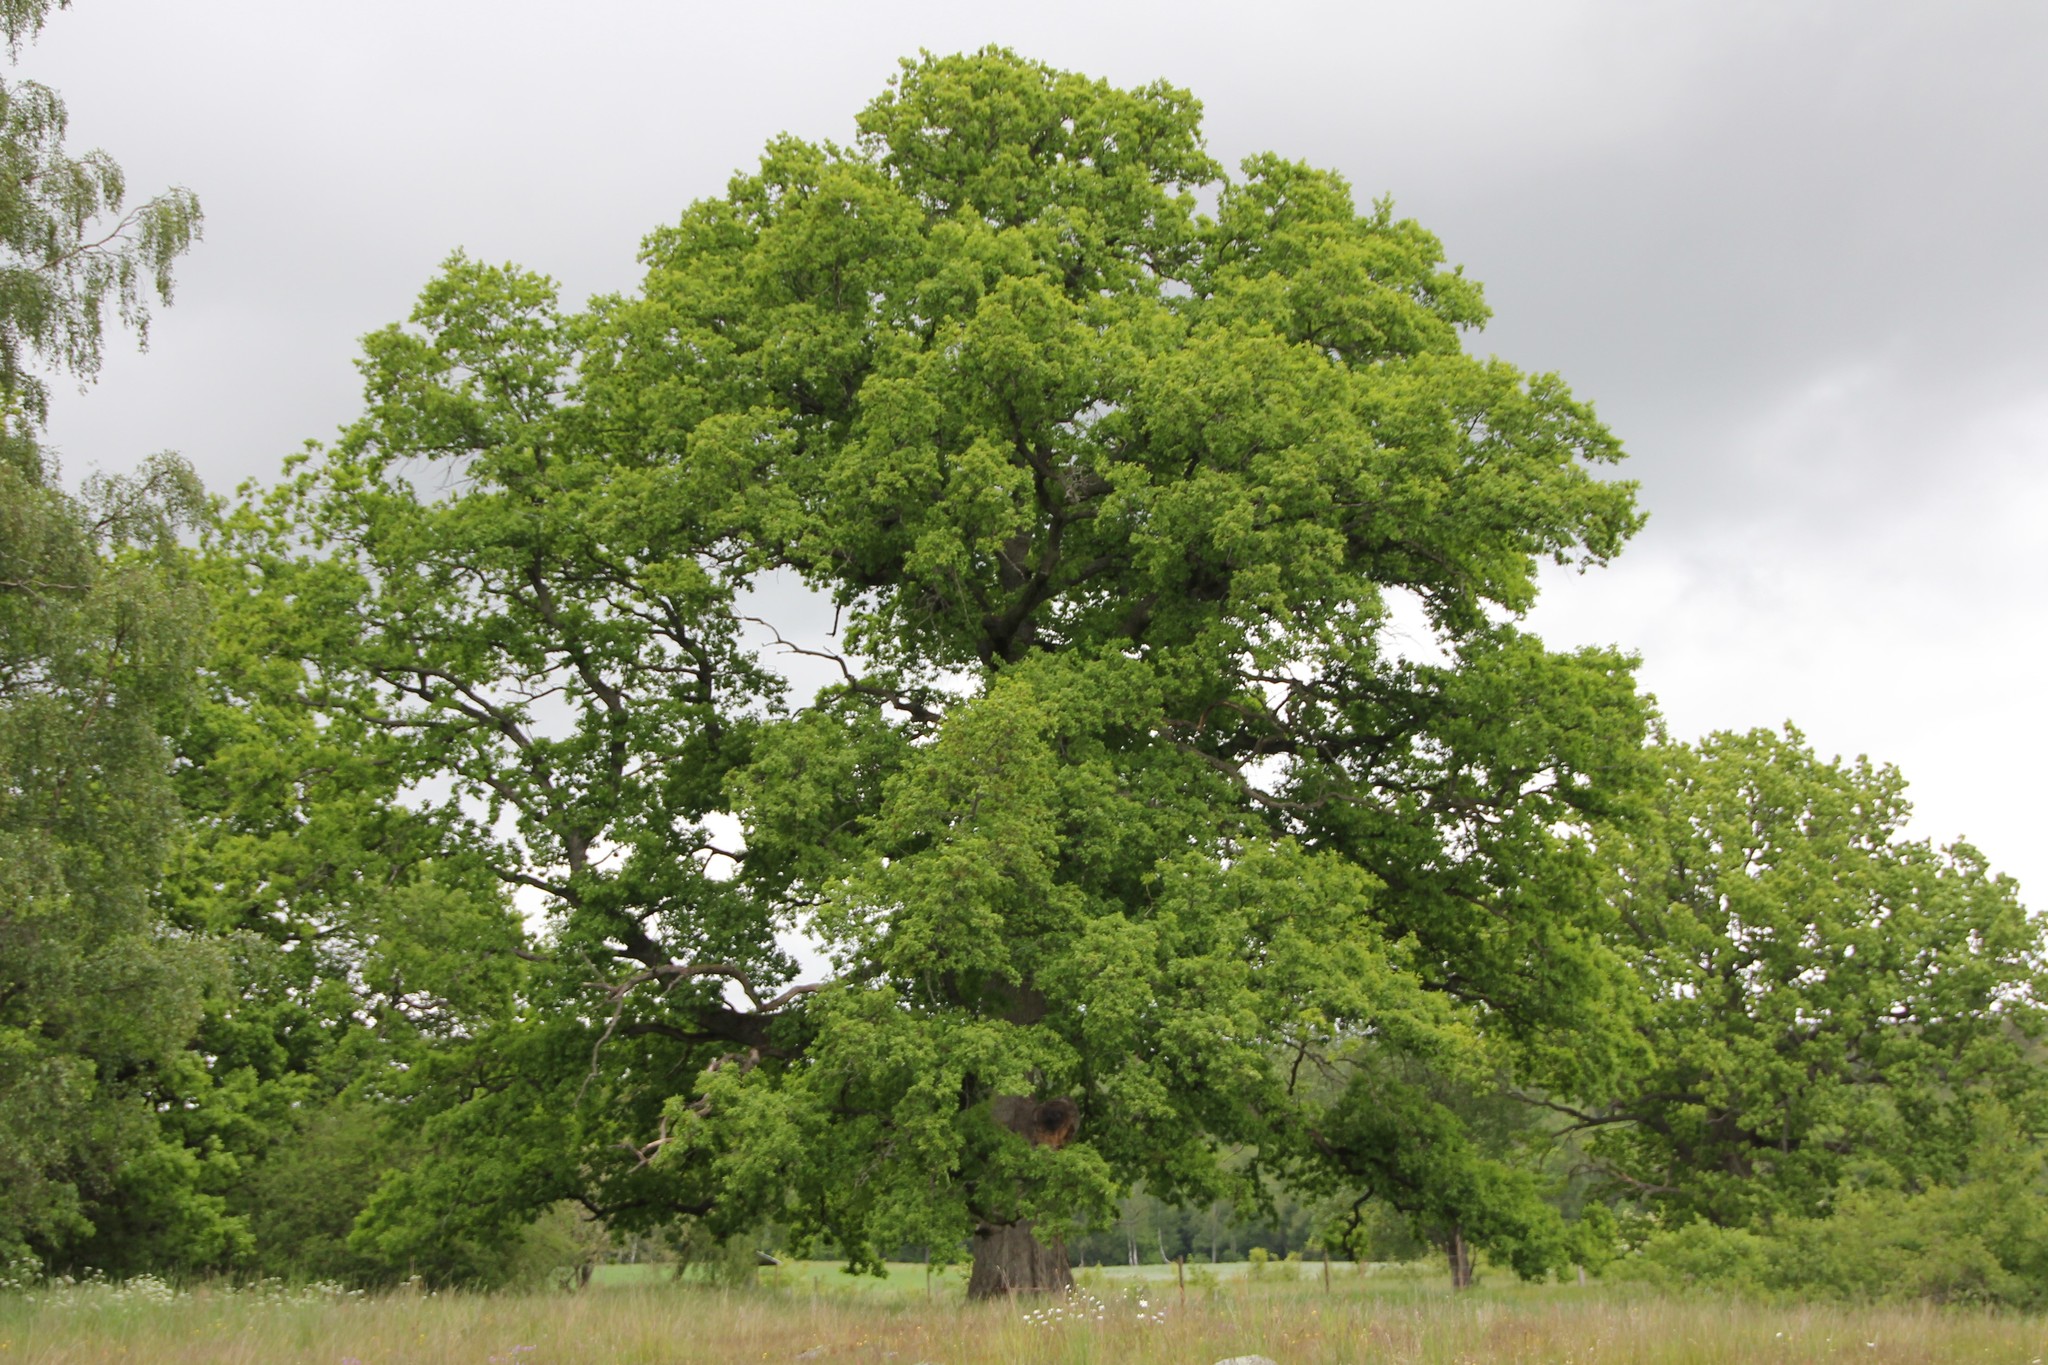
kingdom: Plantae
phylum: Tracheophyta
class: Magnoliopsida
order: Fagales
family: Fagaceae
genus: Quercus
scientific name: Quercus robur
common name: Pedunculate oak
